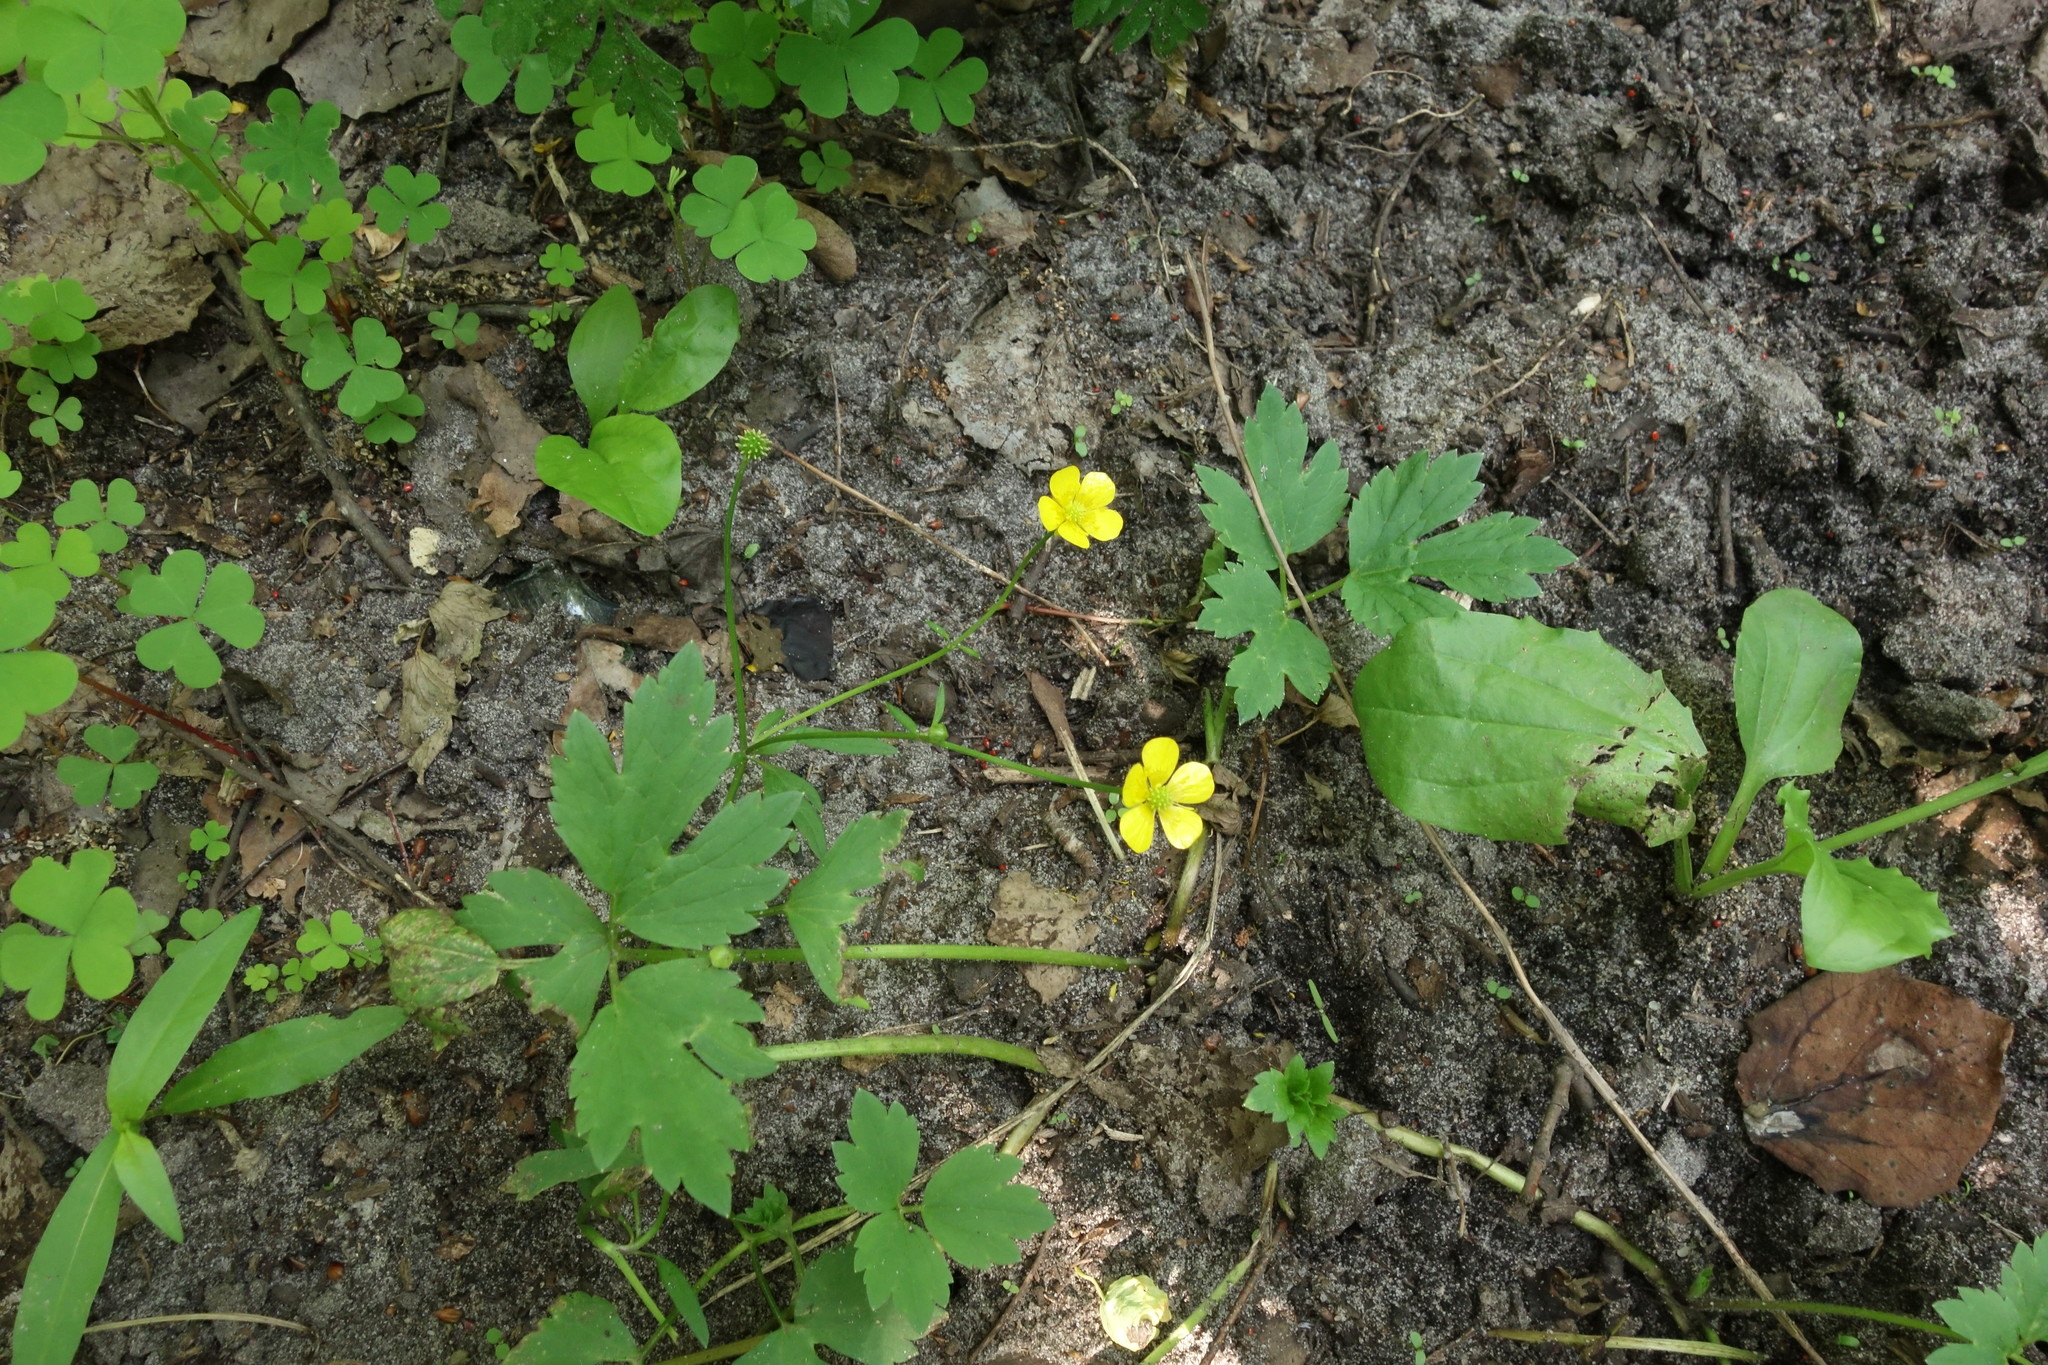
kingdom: Plantae
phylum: Tracheophyta
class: Magnoliopsida
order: Ranunculales
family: Ranunculaceae
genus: Ranunculus
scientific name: Ranunculus repens
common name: Creeping buttercup
